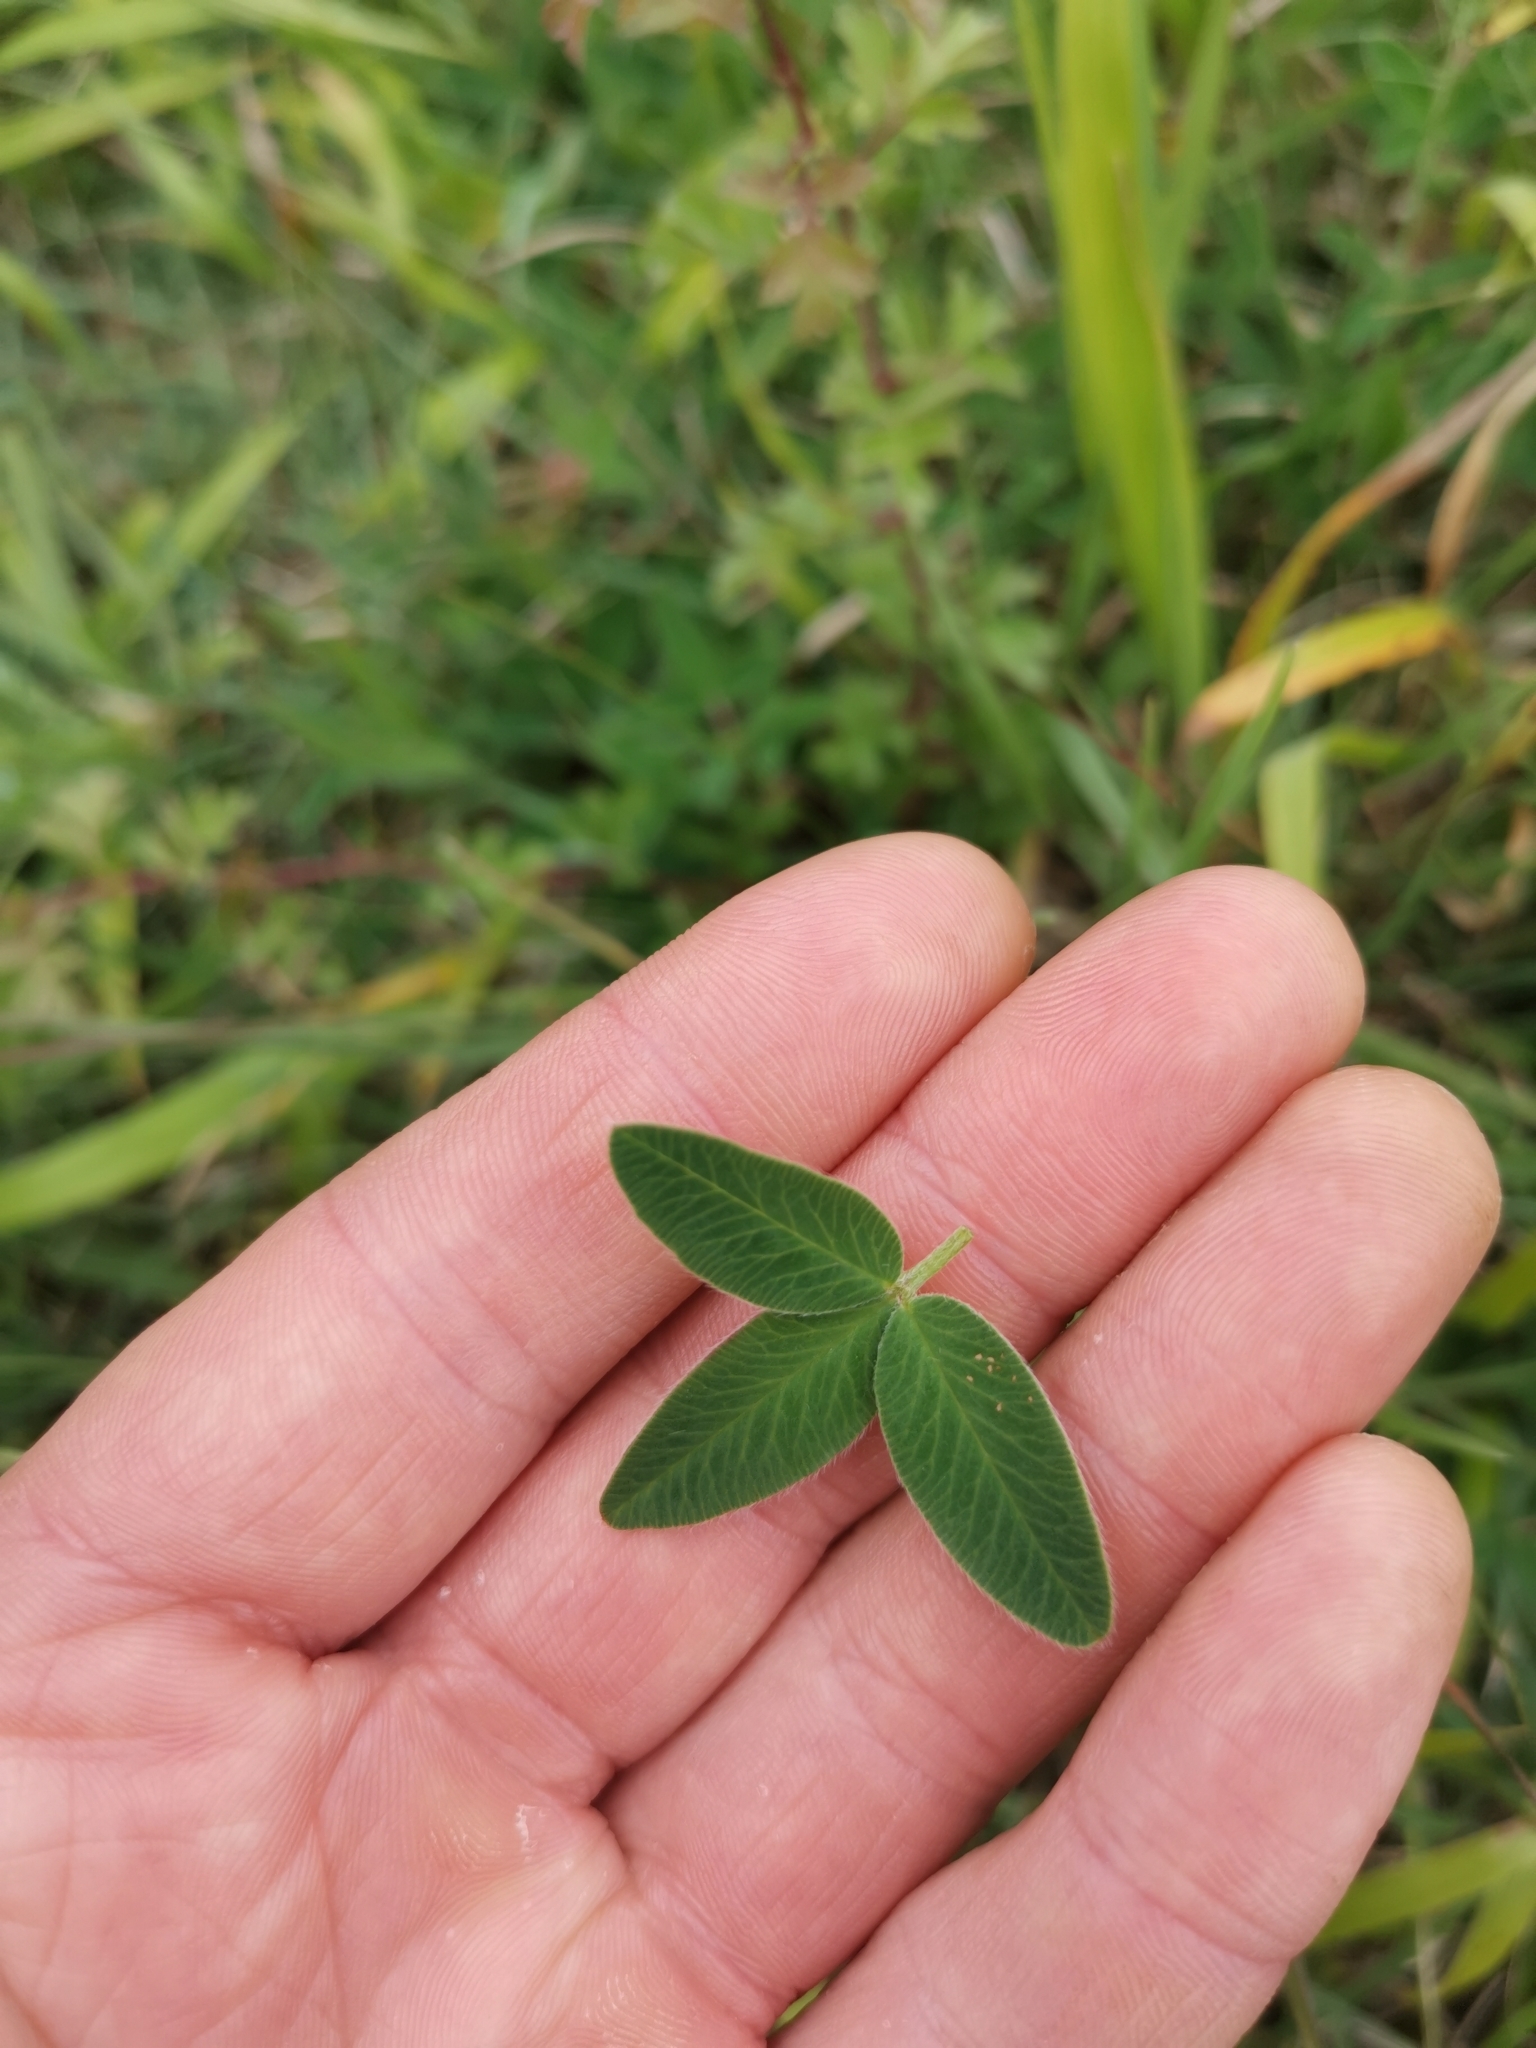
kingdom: Plantae
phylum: Tracheophyta
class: Magnoliopsida
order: Fabales
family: Fabaceae
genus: Trifolium
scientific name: Trifolium medium
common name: Zigzag clover
